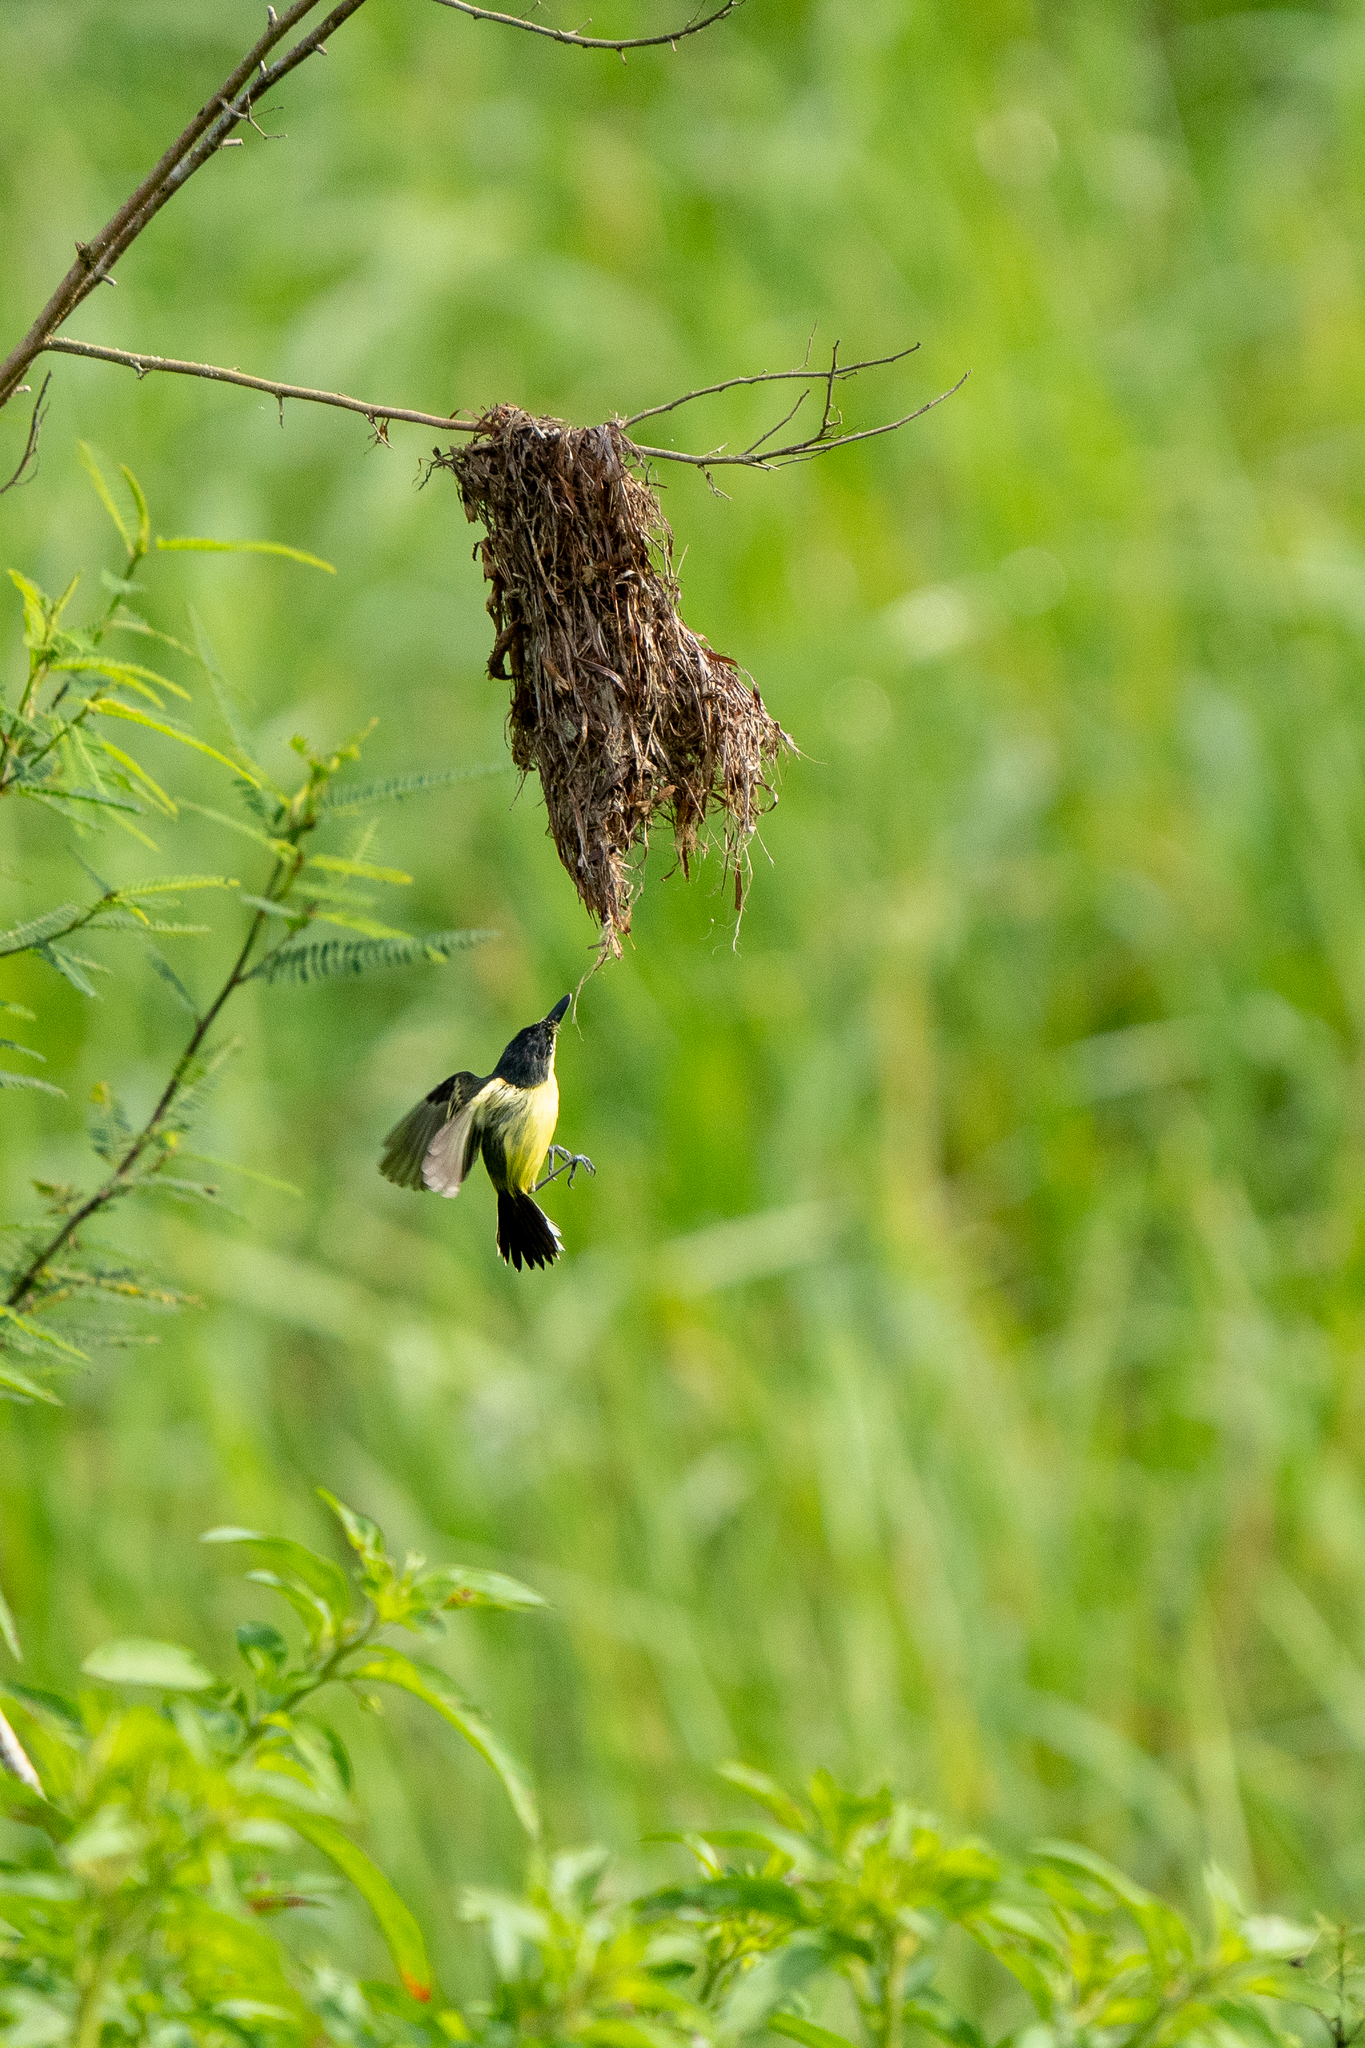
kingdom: Animalia
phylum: Chordata
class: Aves
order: Passeriformes
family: Tyrannidae
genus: Todirostrum
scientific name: Todirostrum cinereum
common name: Common tody-flycatcher
